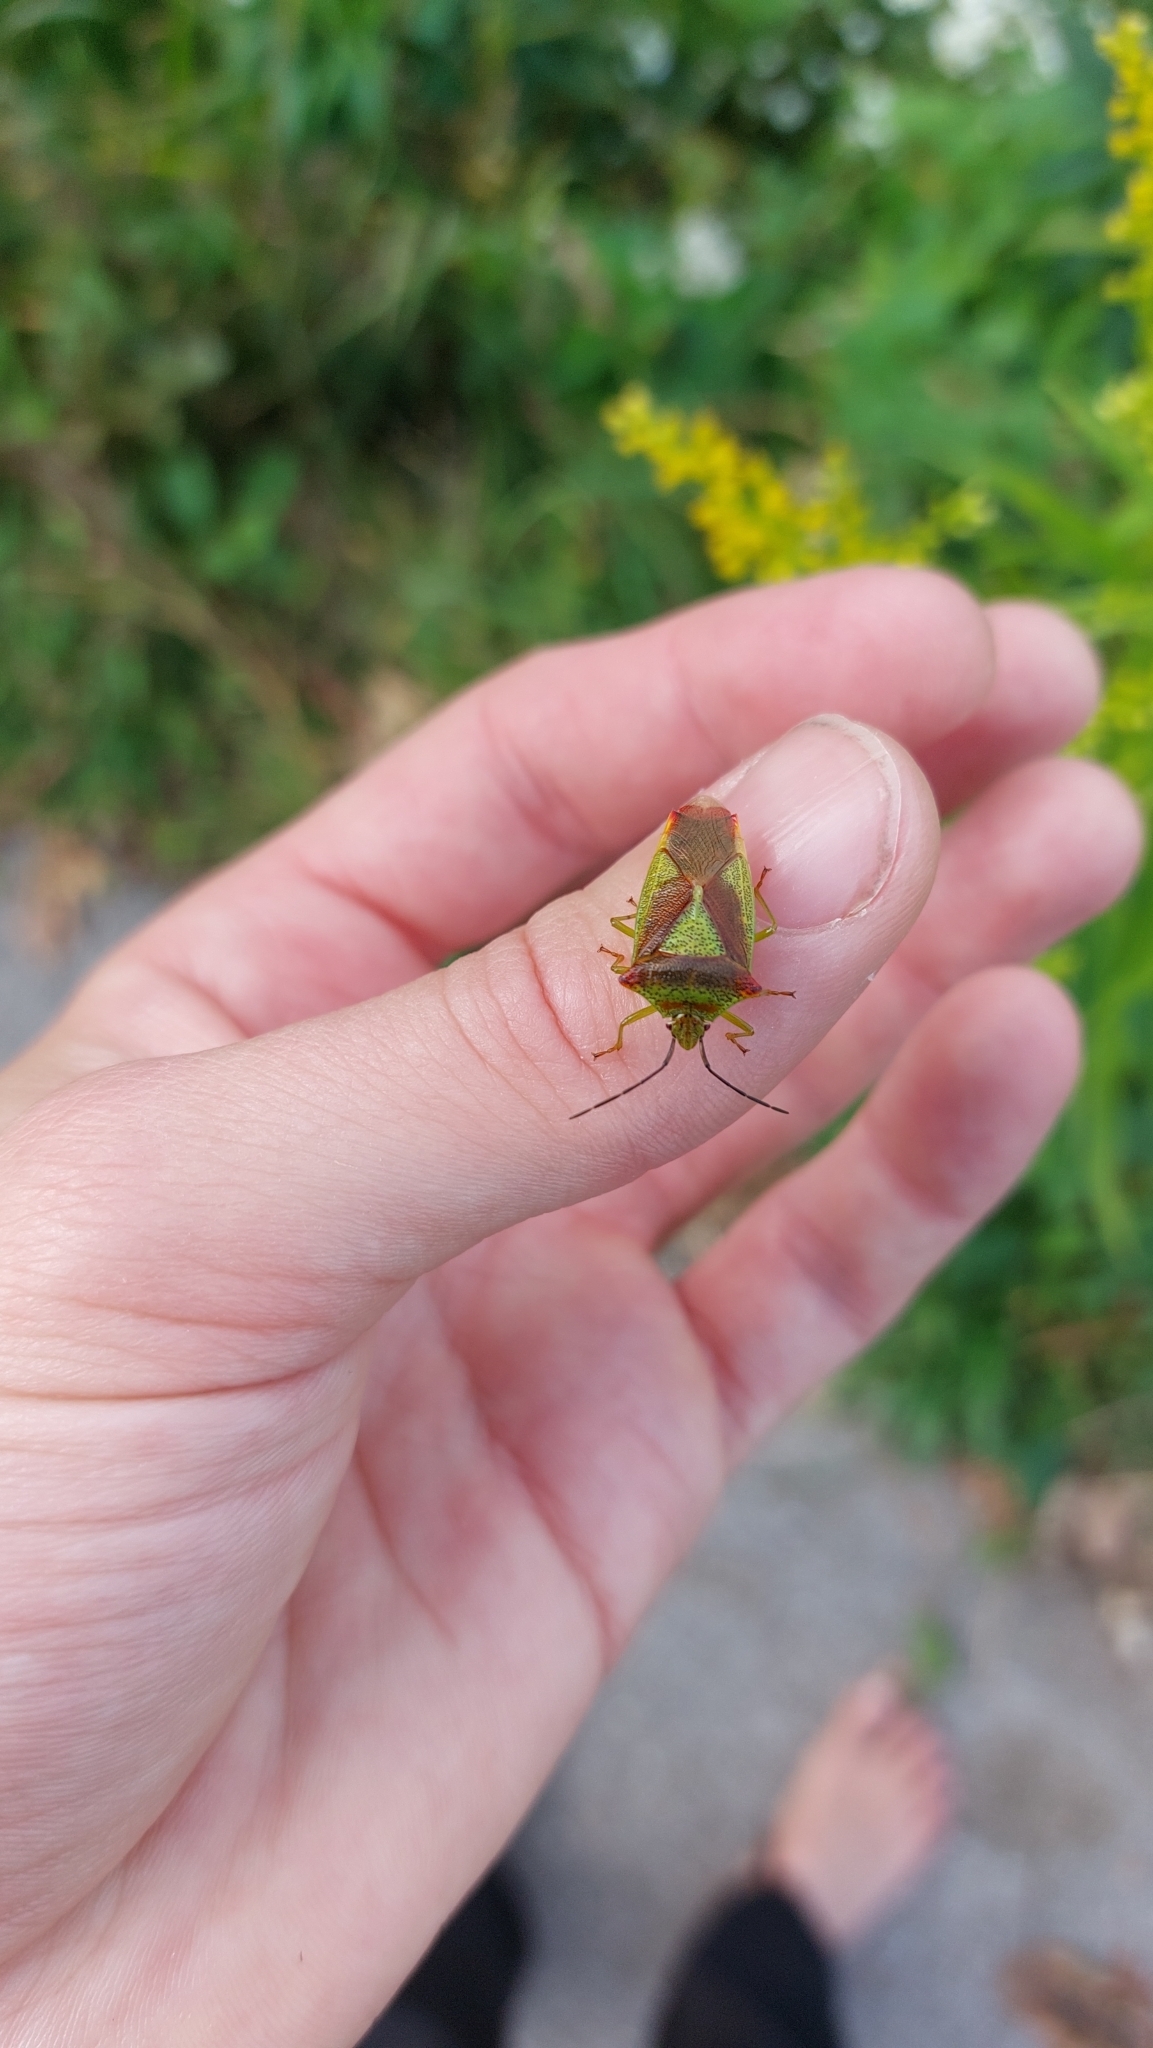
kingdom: Animalia
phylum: Arthropoda
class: Insecta
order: Hemiptera
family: Acanthosomatidae
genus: Acanthosoma
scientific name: Acanthosoma haemorrhoidale
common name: Hawthorn shieldbug
